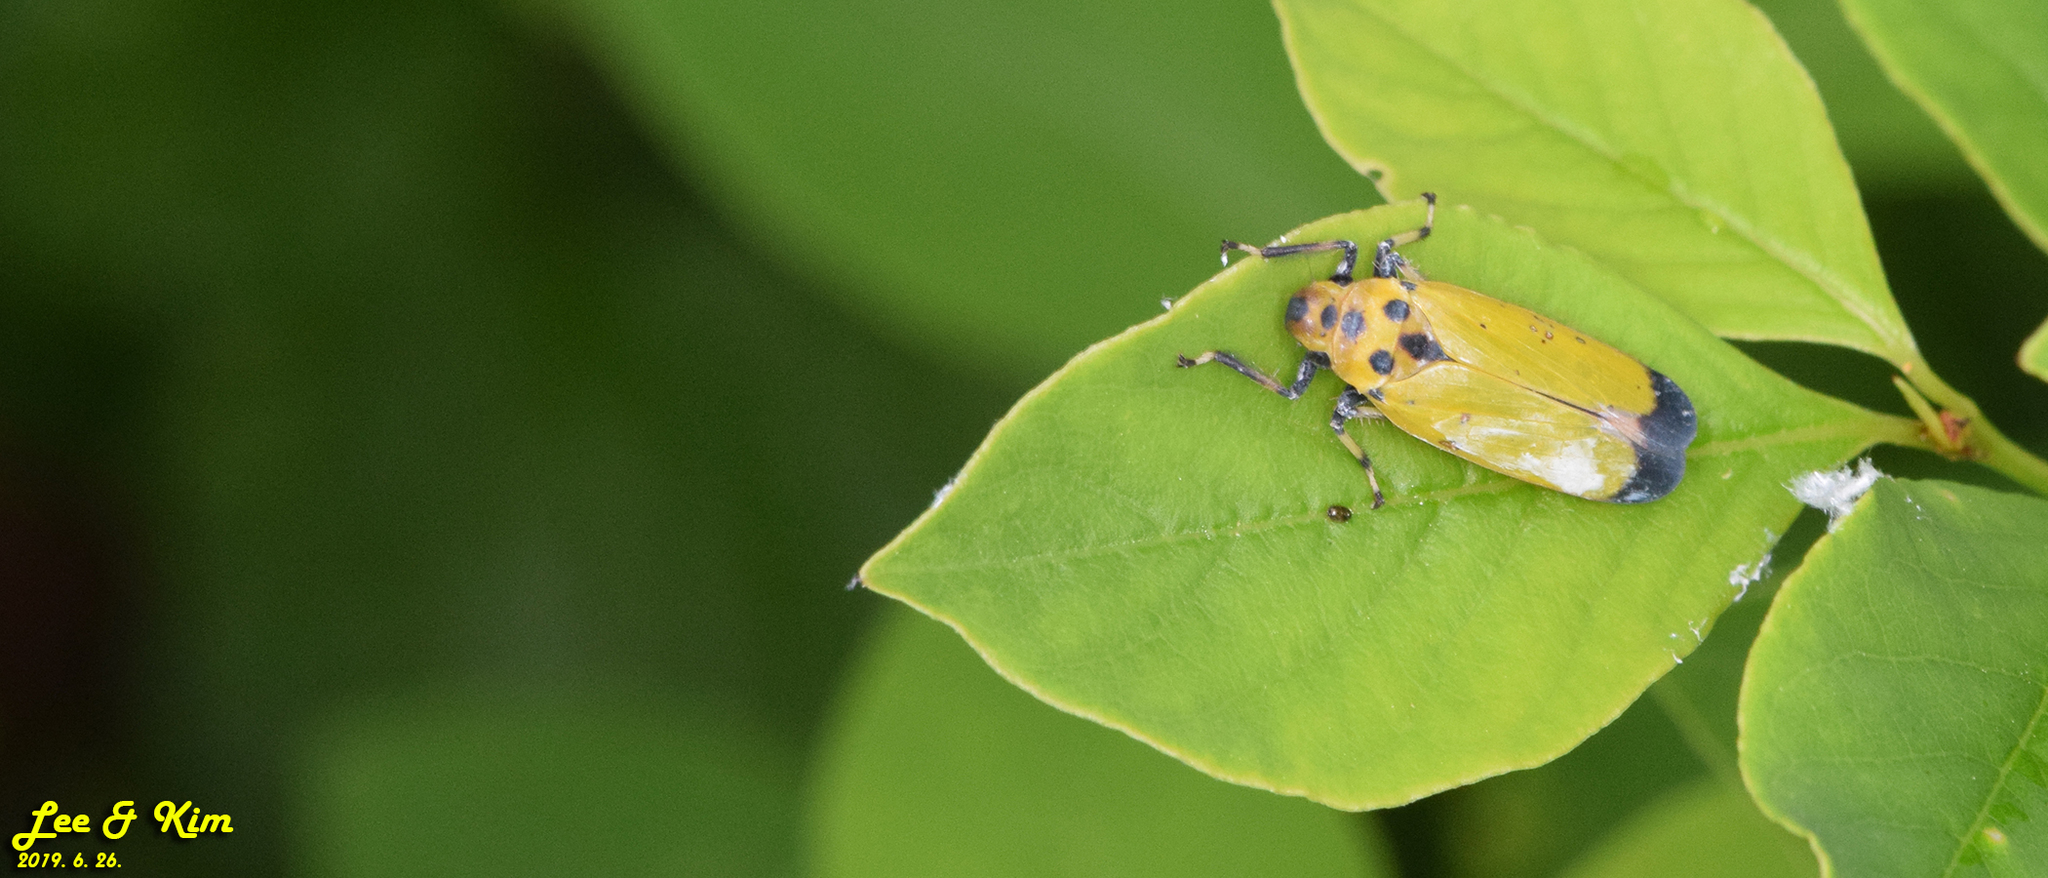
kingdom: Animalia
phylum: Arthropoda
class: Insecta
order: Hemiptera
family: Cicadellidae
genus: Bothrogonia
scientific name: Bothrogonia ferruginea
